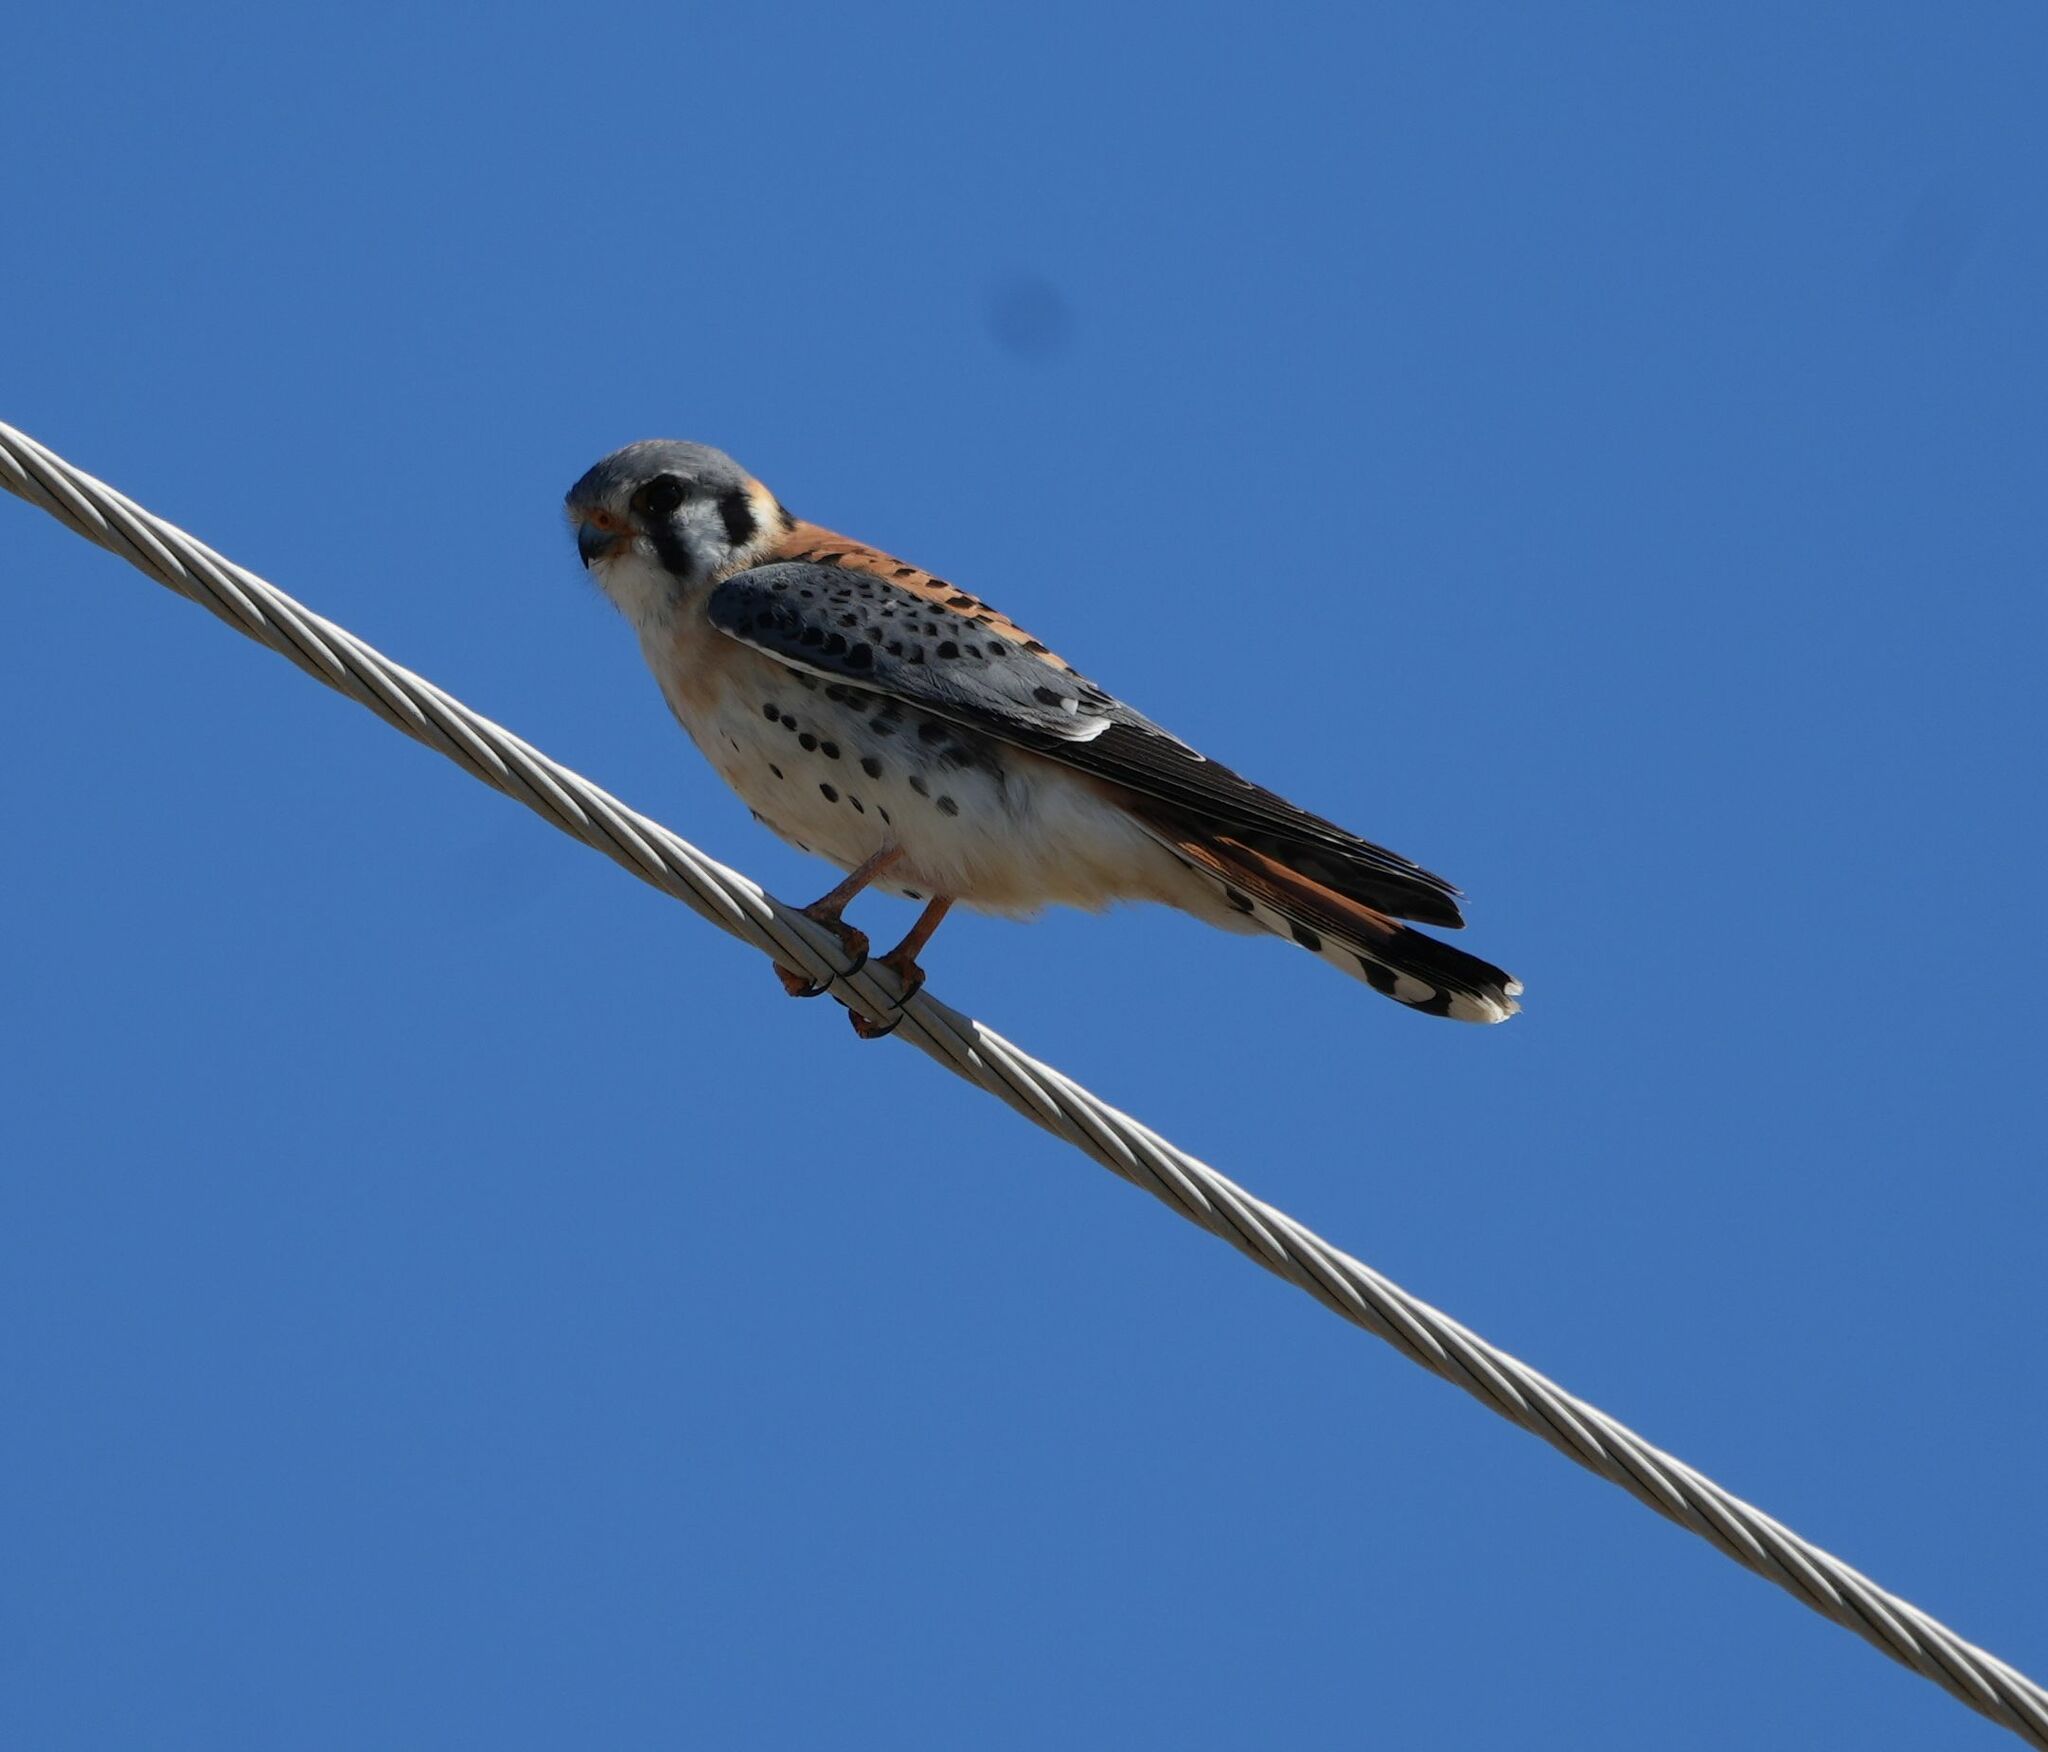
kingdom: Animalia
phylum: Chordata
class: Aves
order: Falconiformes
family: Falconidae
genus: Falco
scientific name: Falco sparverius
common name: American kestrel
